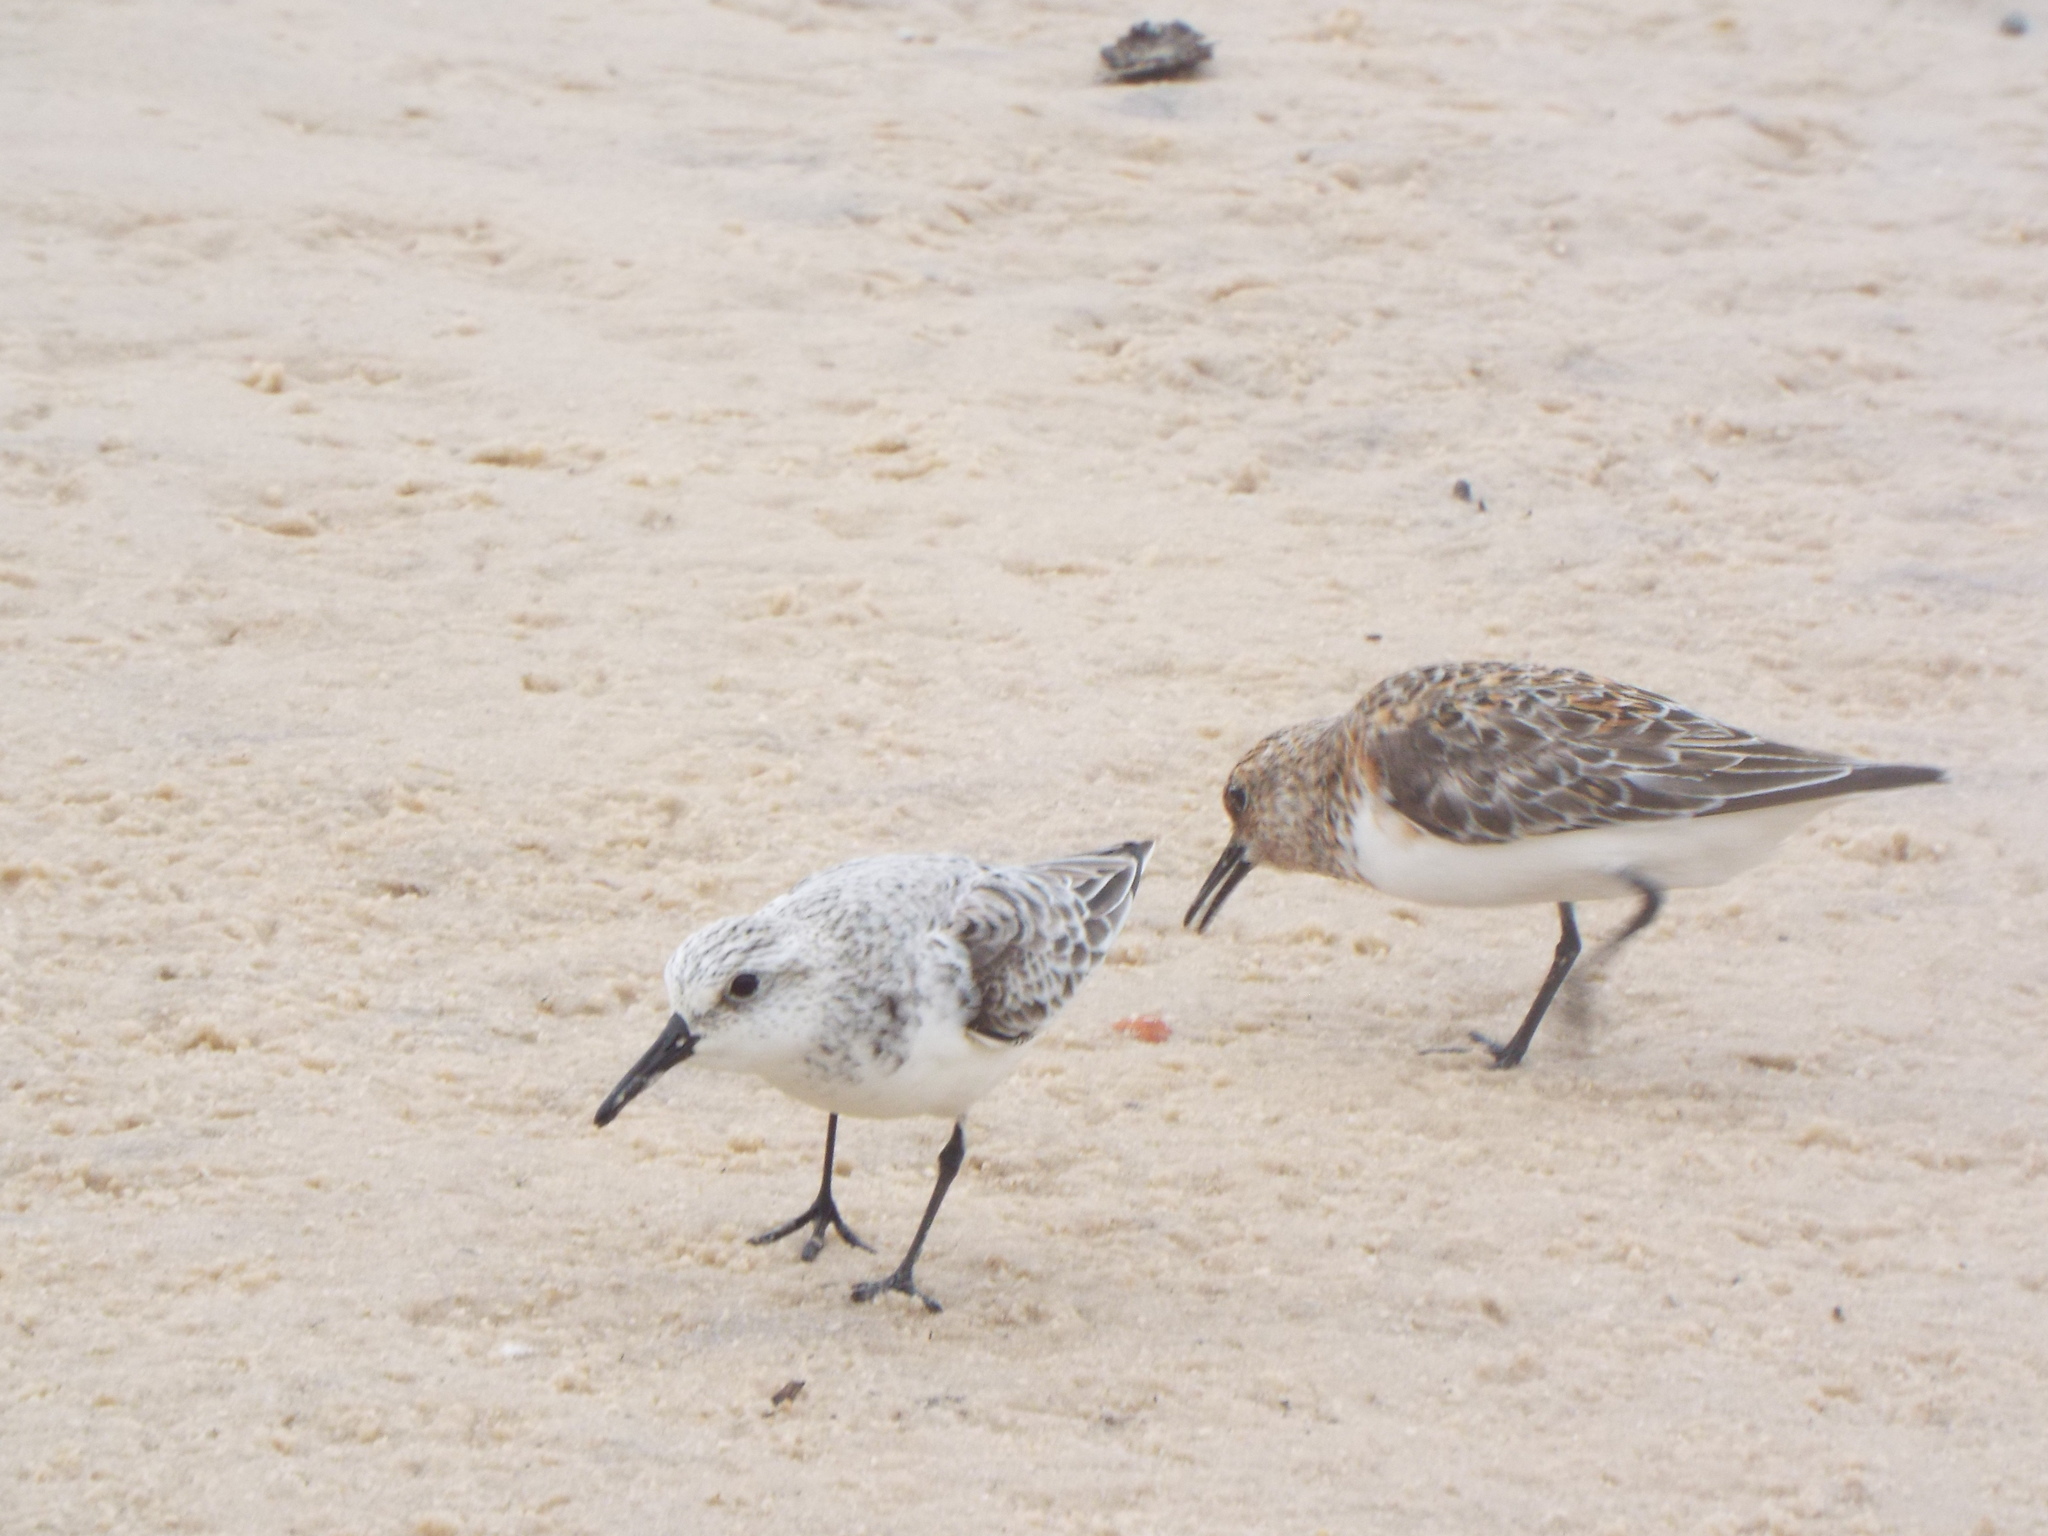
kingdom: Animalia
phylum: Chordata
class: Aves
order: Charadriiformes
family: Scolopacidae
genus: Calidris
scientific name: Calidris alba
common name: Sanderling
